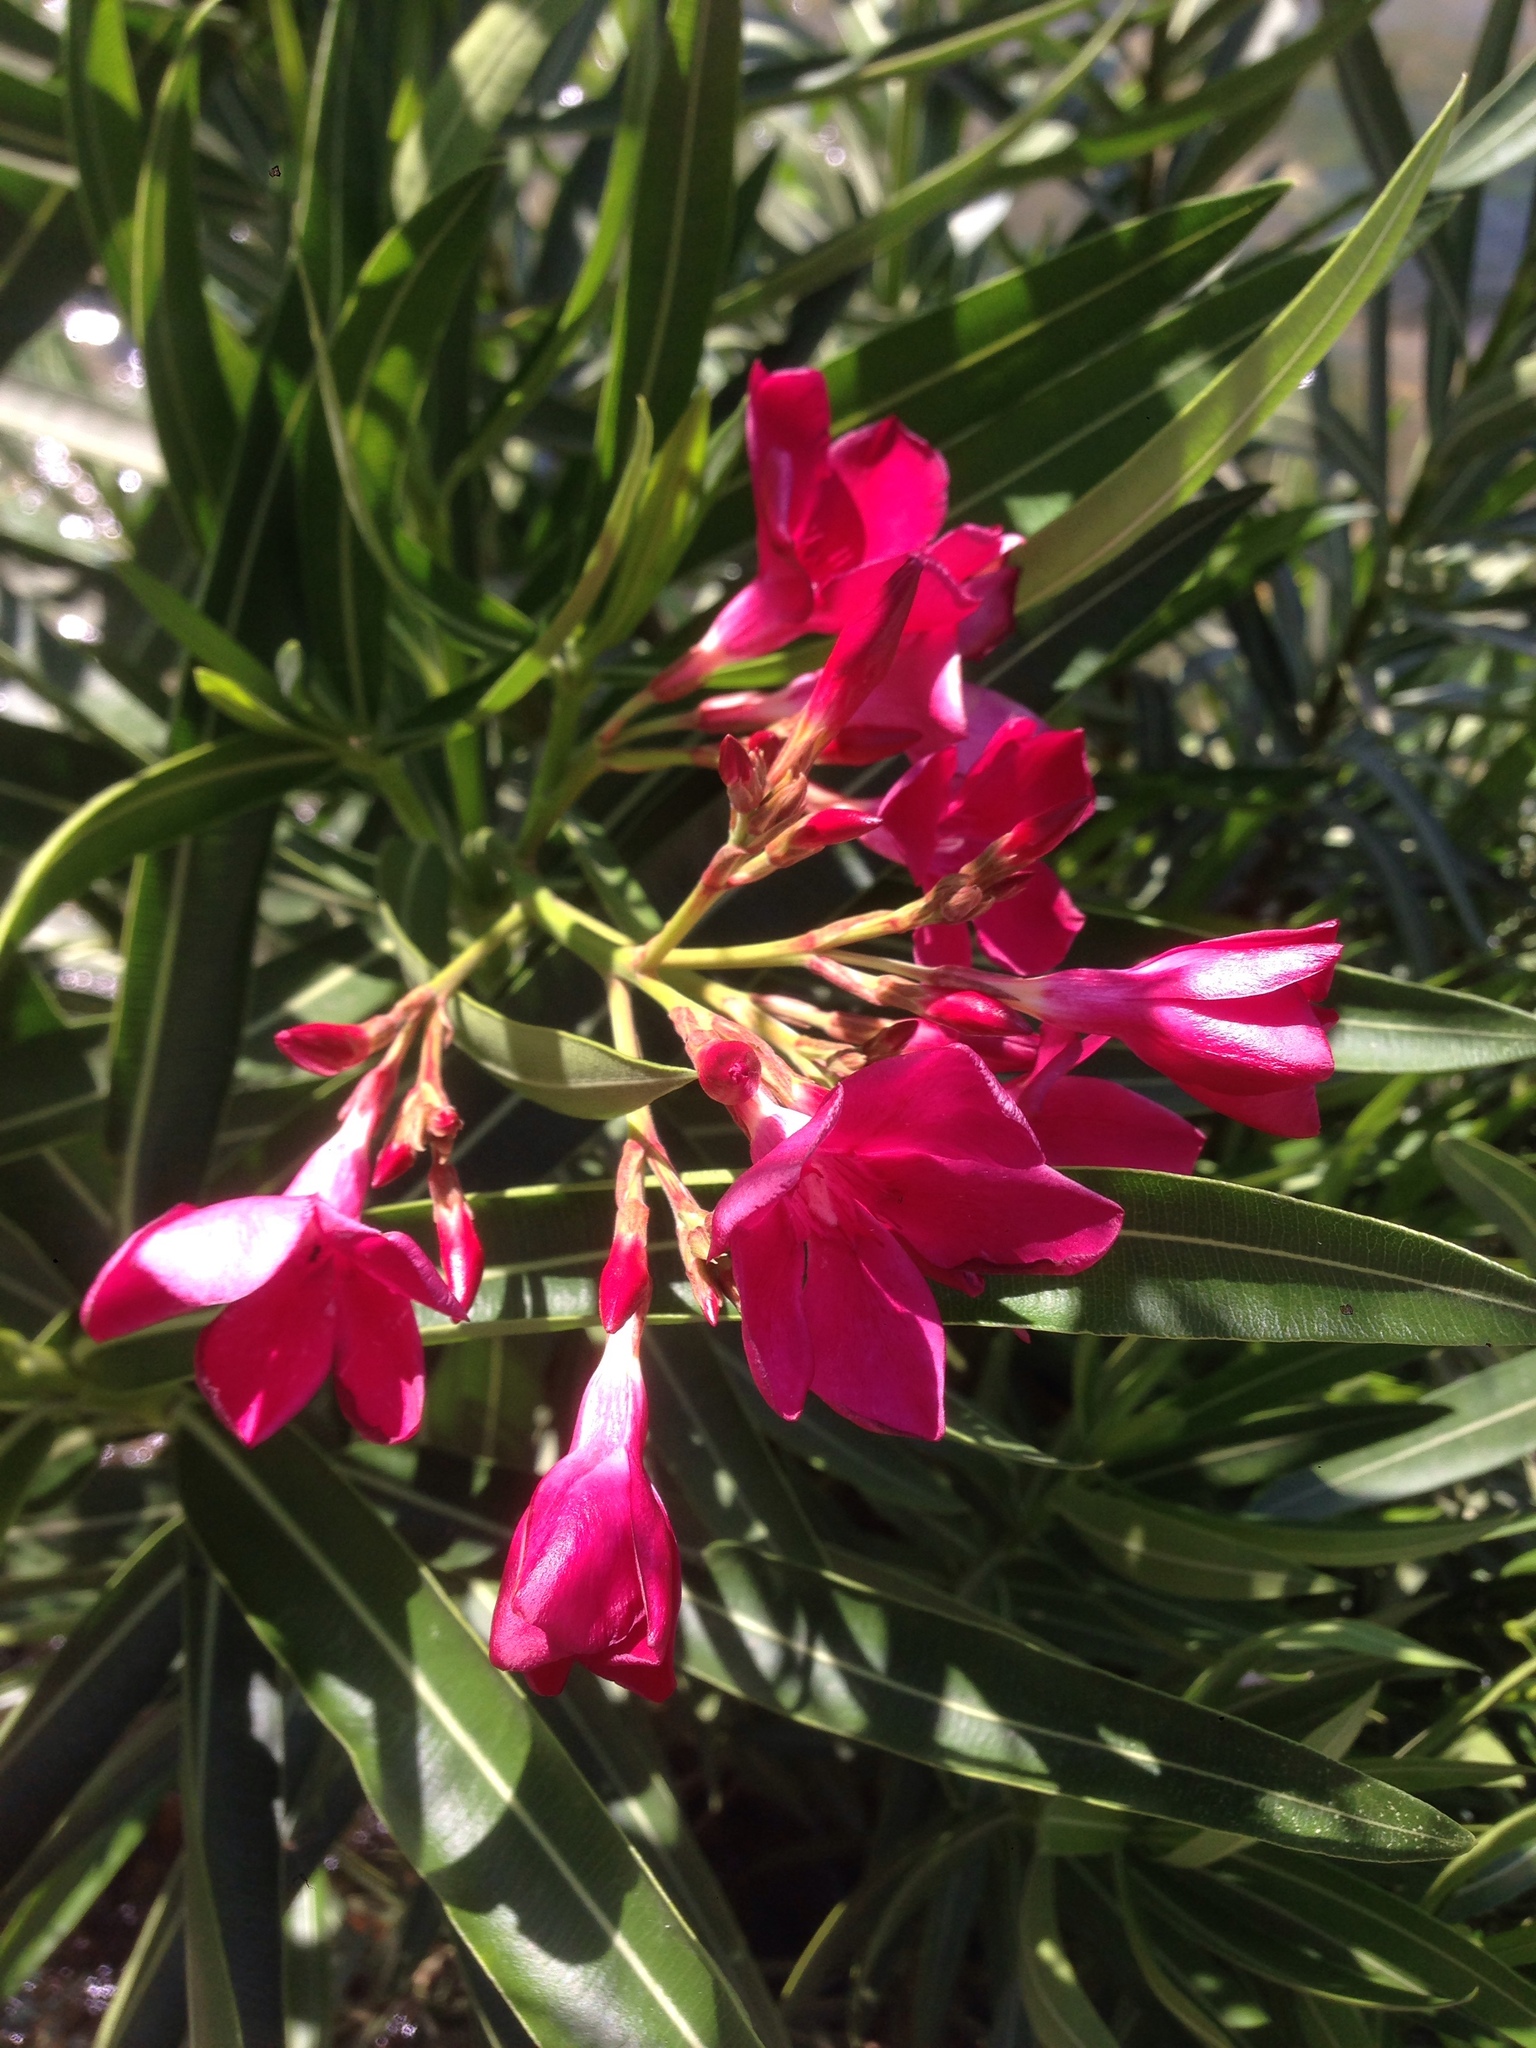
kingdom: Plantae
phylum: Tracheophyta
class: Magnoliopsida
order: Gentianales
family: Apocynaceae
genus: Nerium
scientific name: Nerium oleander
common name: Oleander
